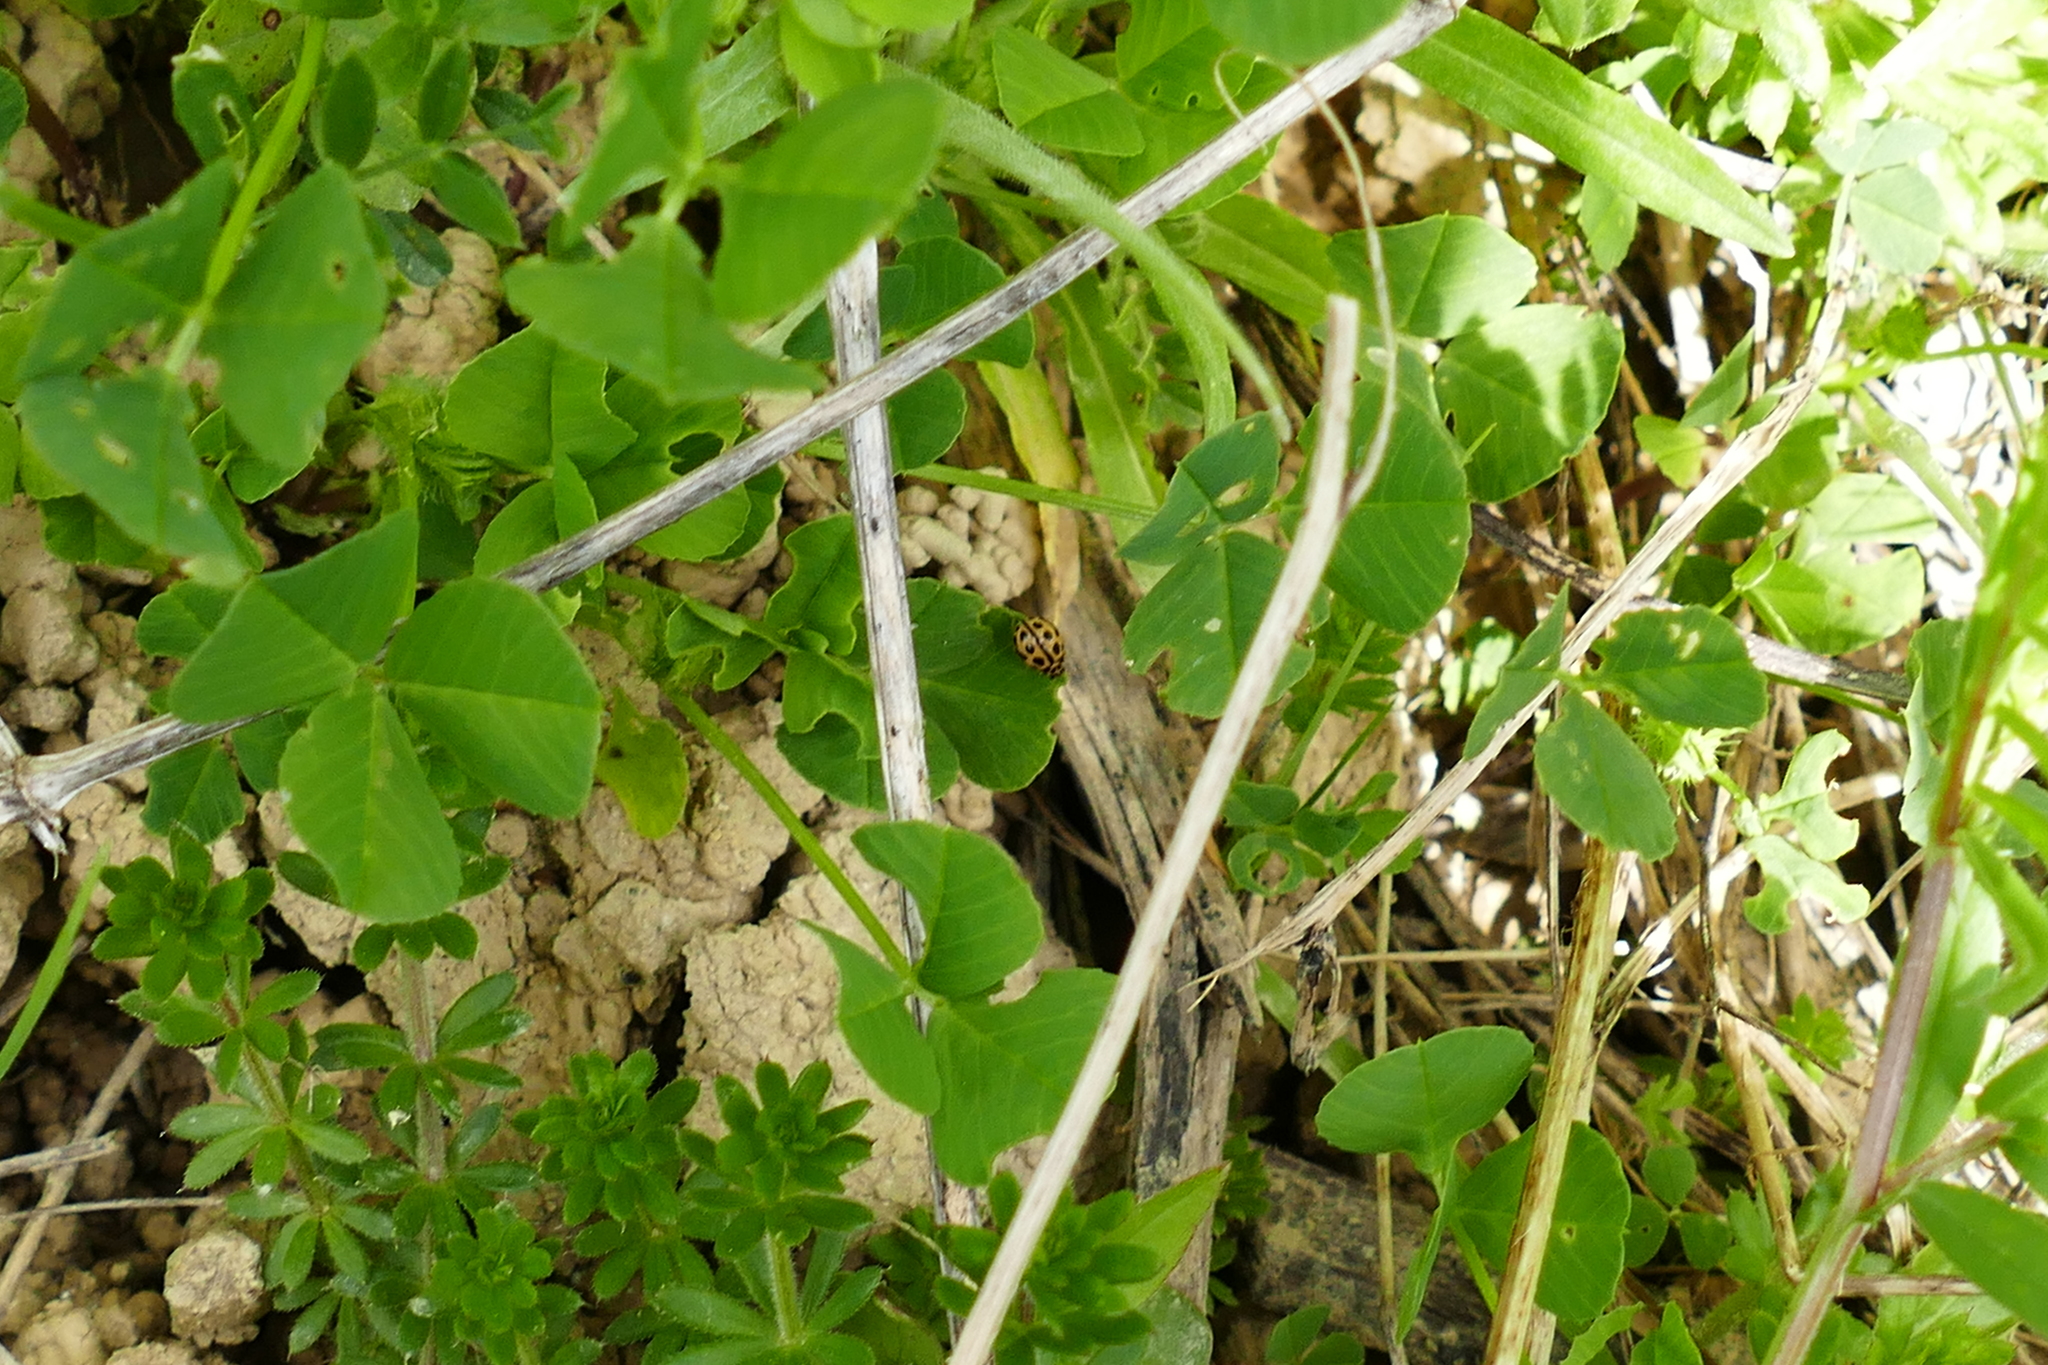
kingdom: Animalia
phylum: Arthropoda
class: Insecta
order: Coleoptera
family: Coccinellidae
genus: Tytthaspis
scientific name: Tytthaspis sedecimpunctata
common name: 16-spot ladybird
